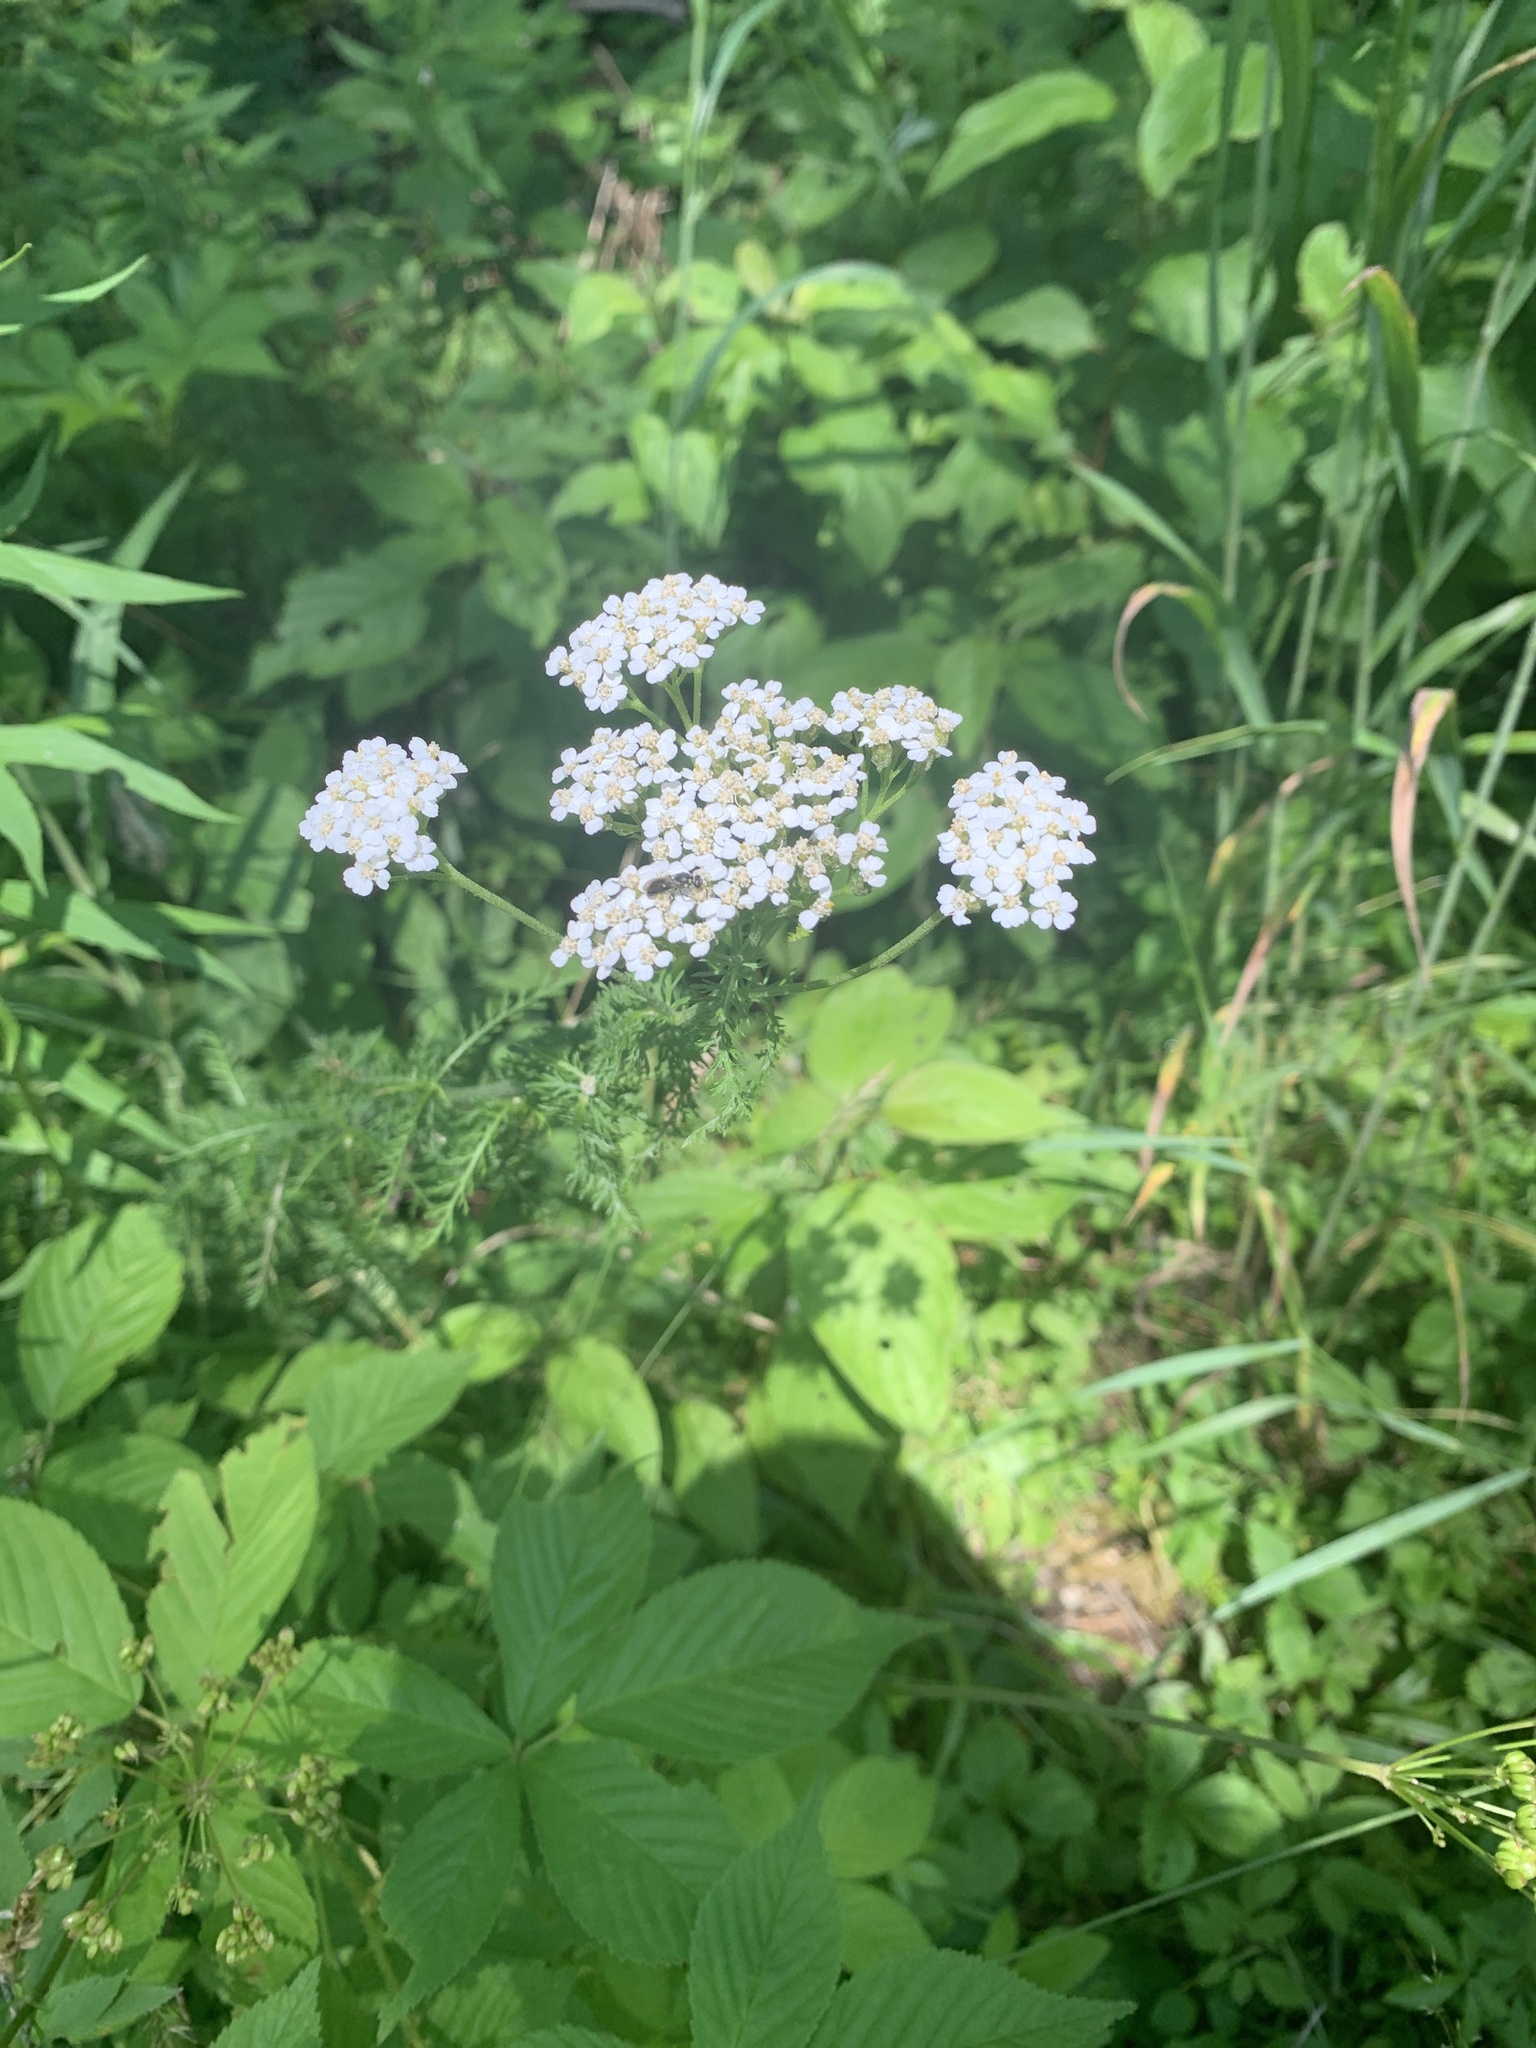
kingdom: Plantae
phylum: Tracheophyta
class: Magnoliopsida
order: Asterales
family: Asteraceae
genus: Achillea
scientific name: Achillea millefolium
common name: Yarrow
